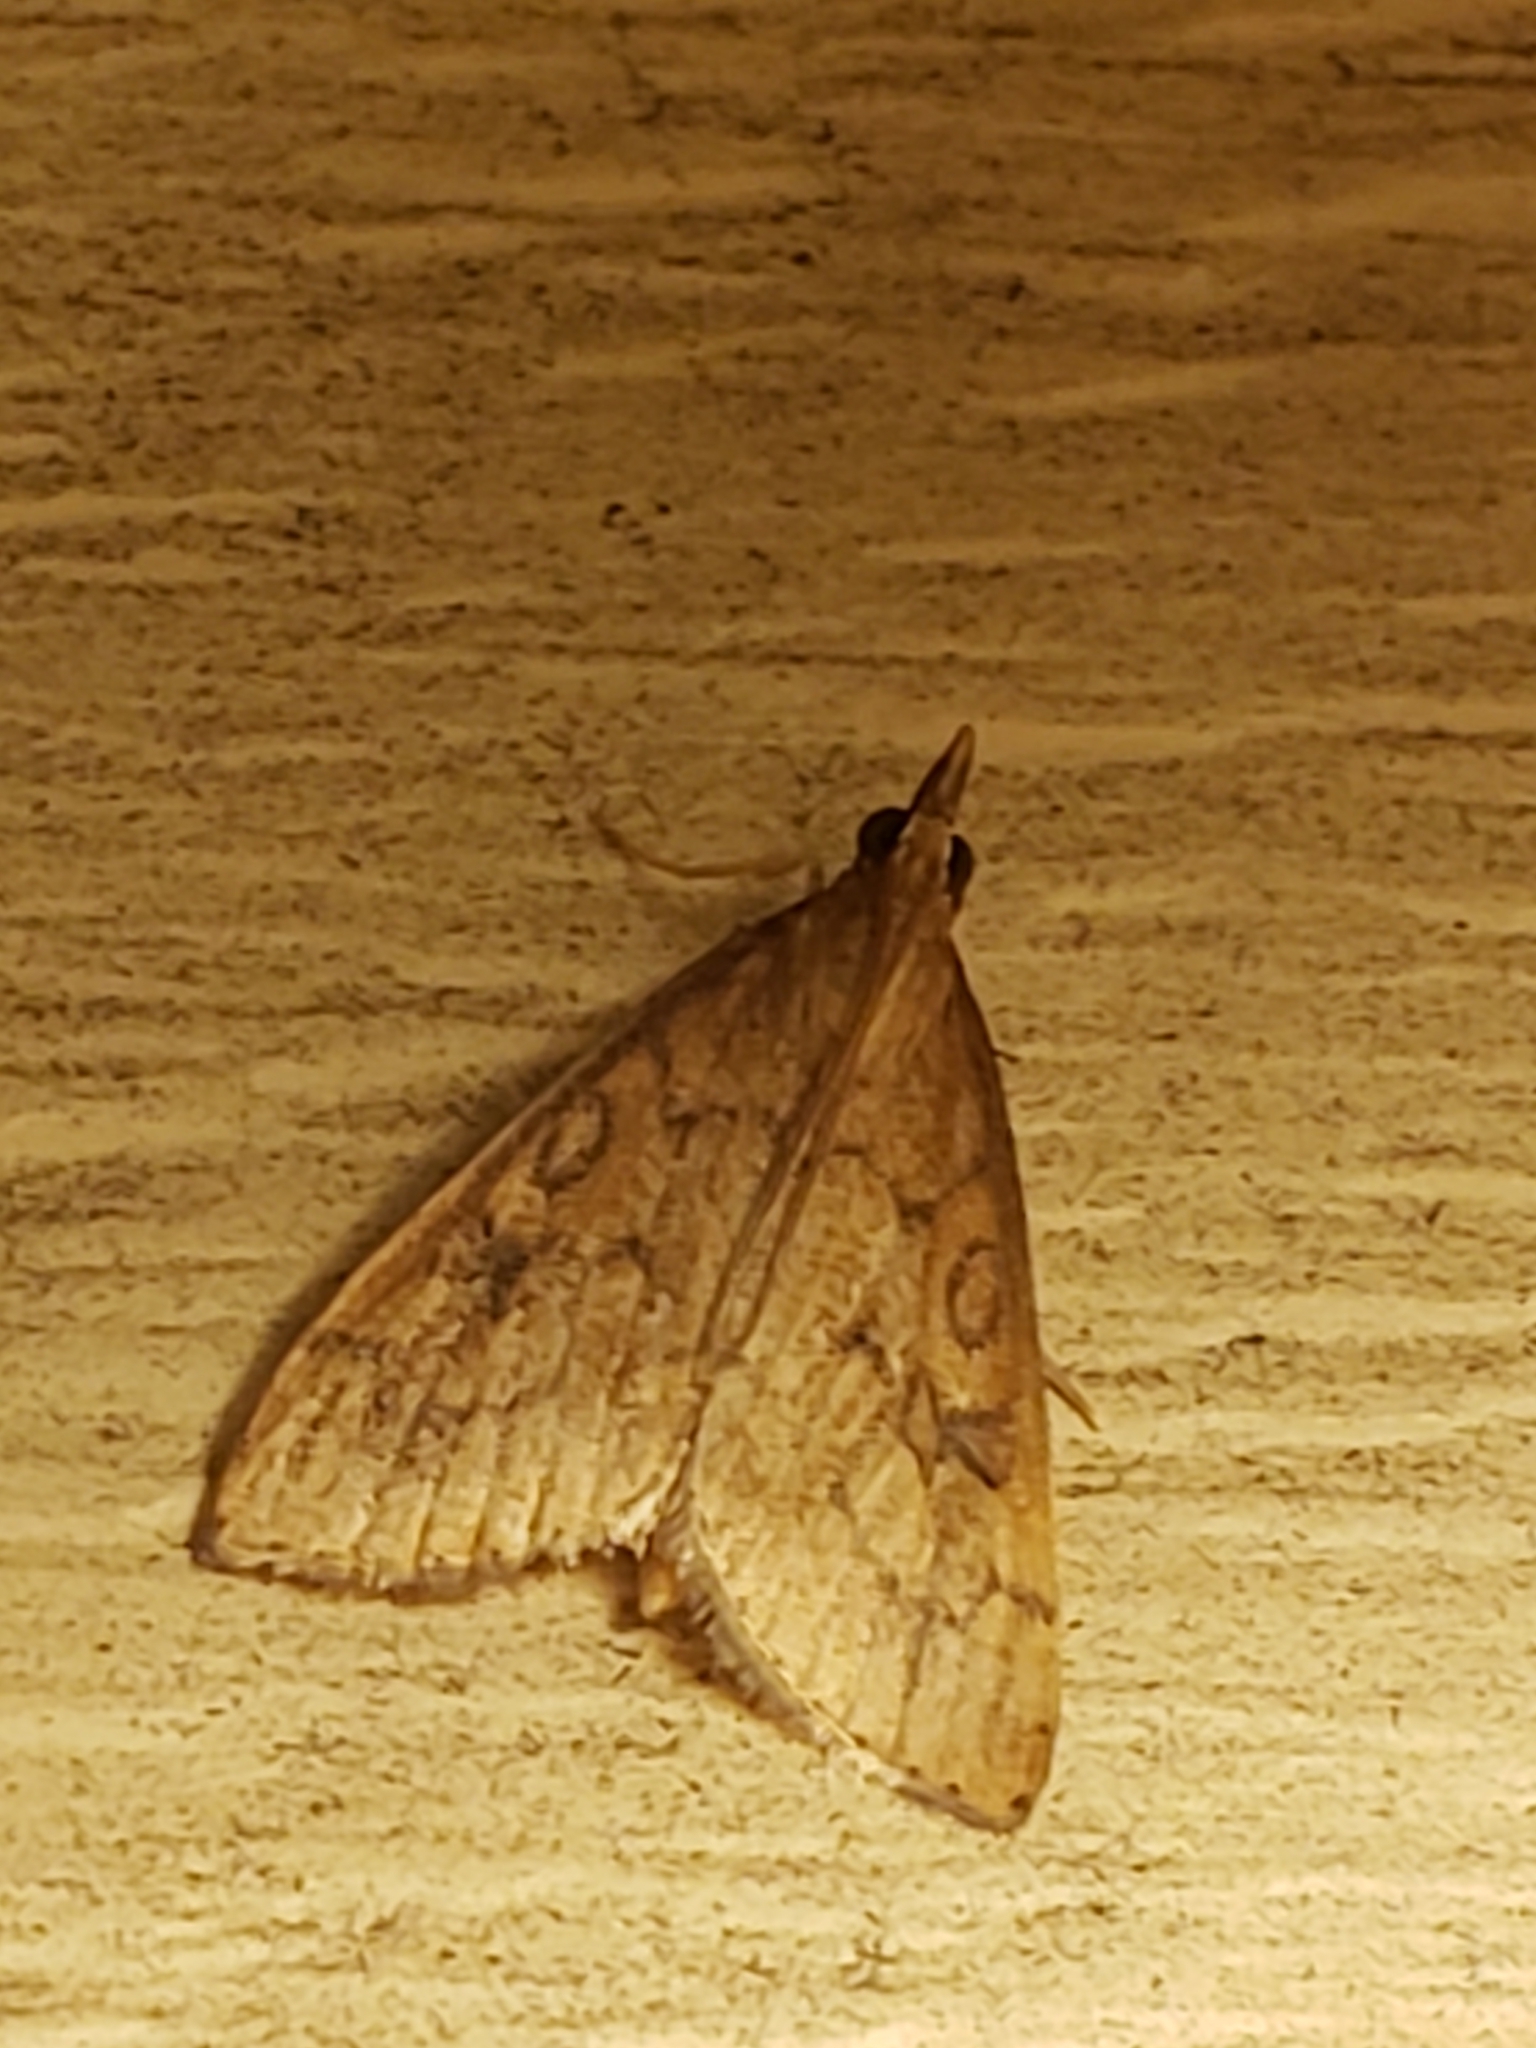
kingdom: Animalia
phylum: Arthropoda
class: Insecta
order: Lepidoptera
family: Crambidae
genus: Udea
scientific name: Udea rubigalis
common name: Celery leaftier moth
